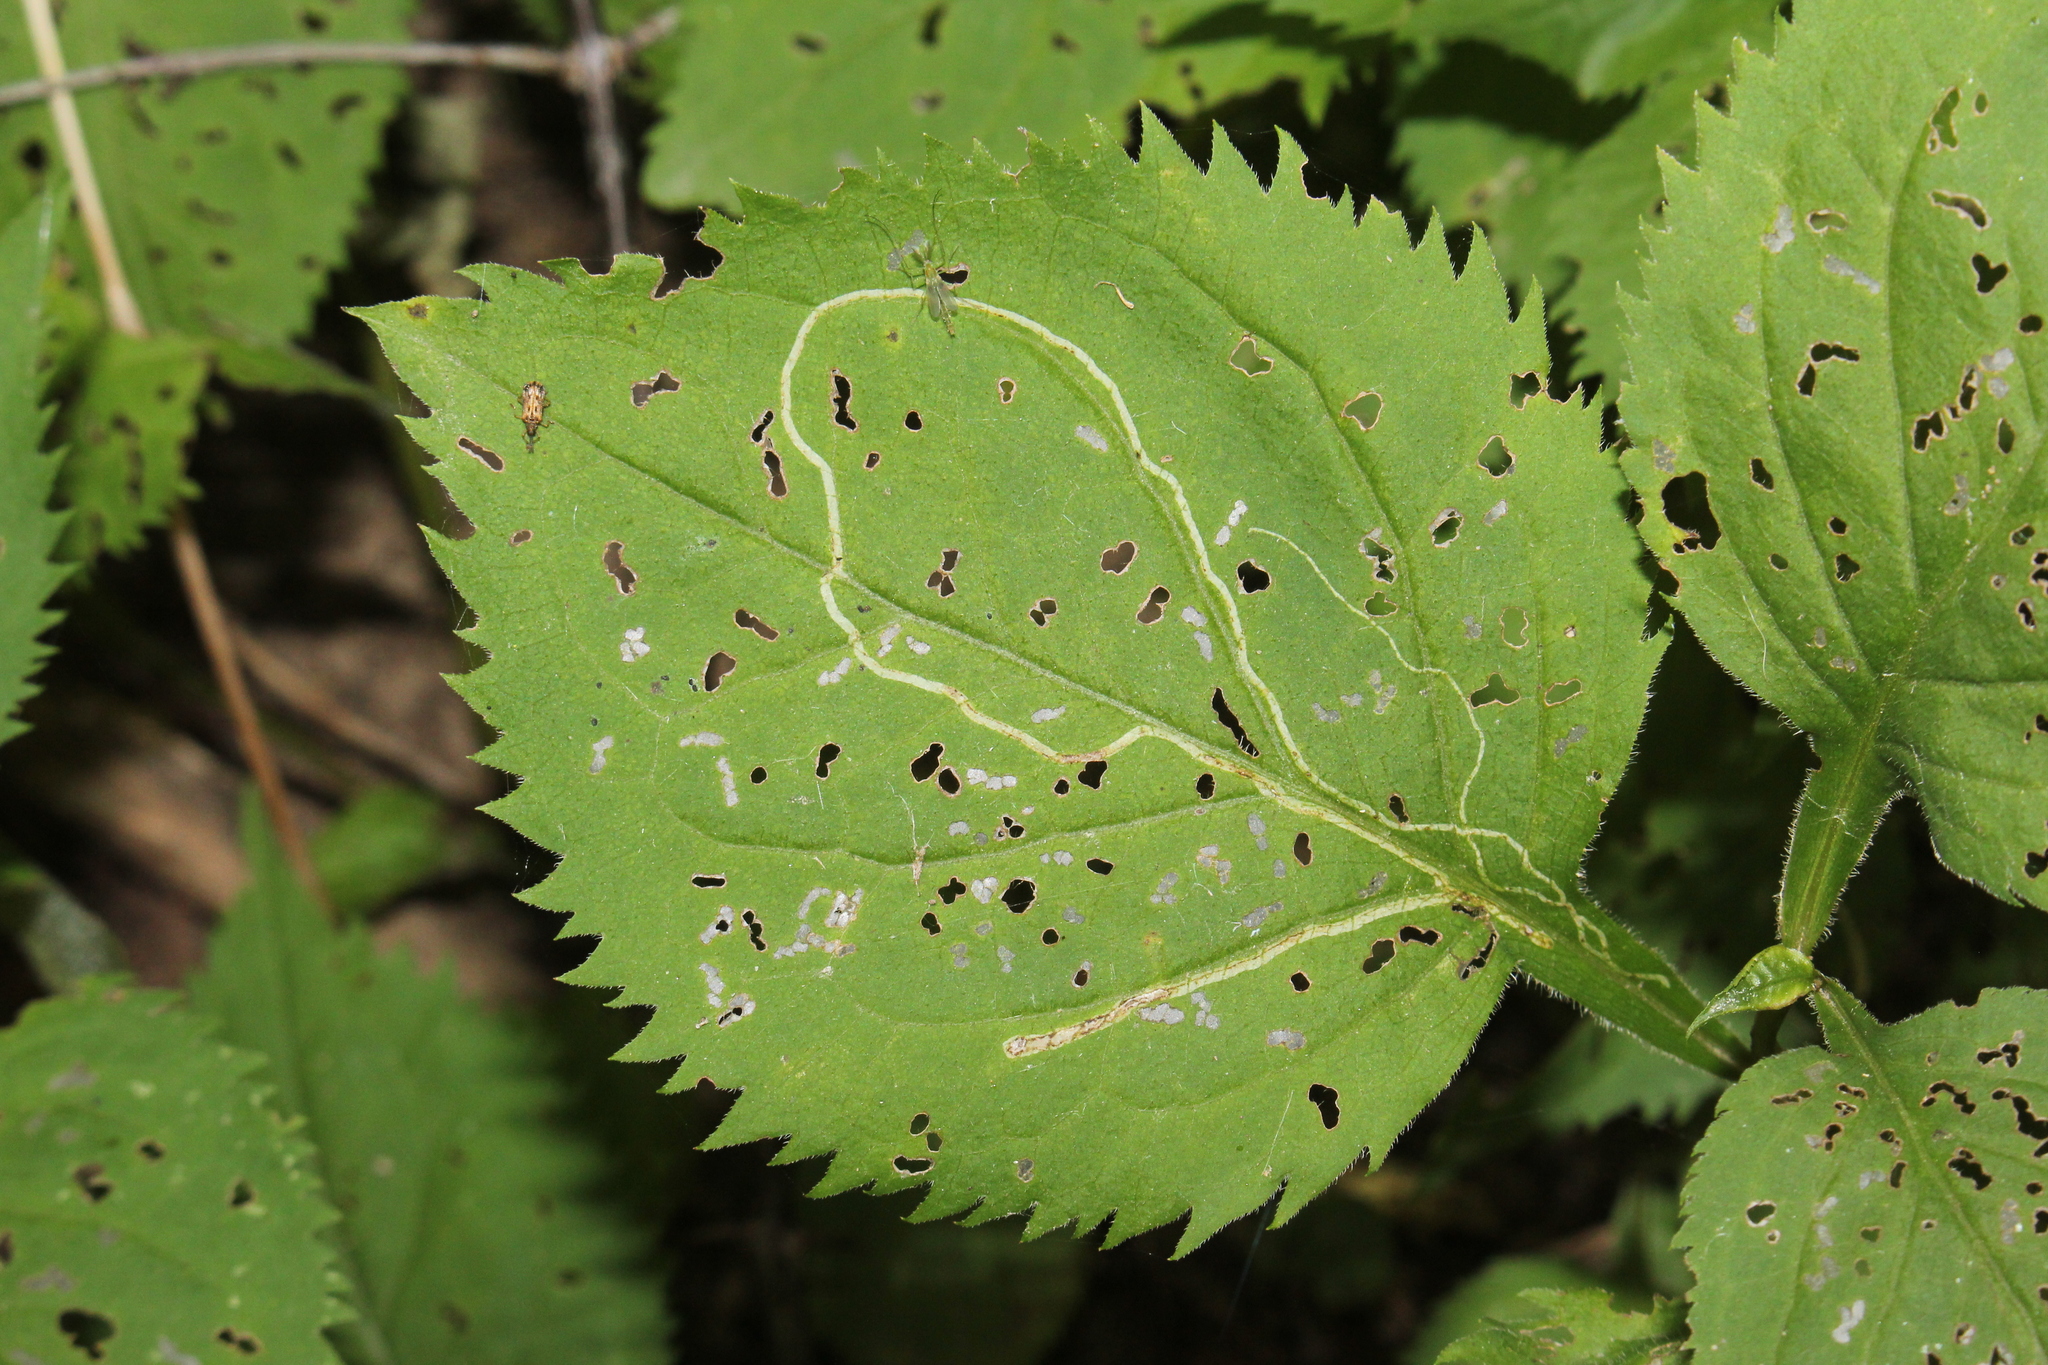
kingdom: Animalia
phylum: Arthropoda
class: Insecta
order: Diptera
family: Agromyzidae
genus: Ophiomyia
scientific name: Ophiomyia maura
